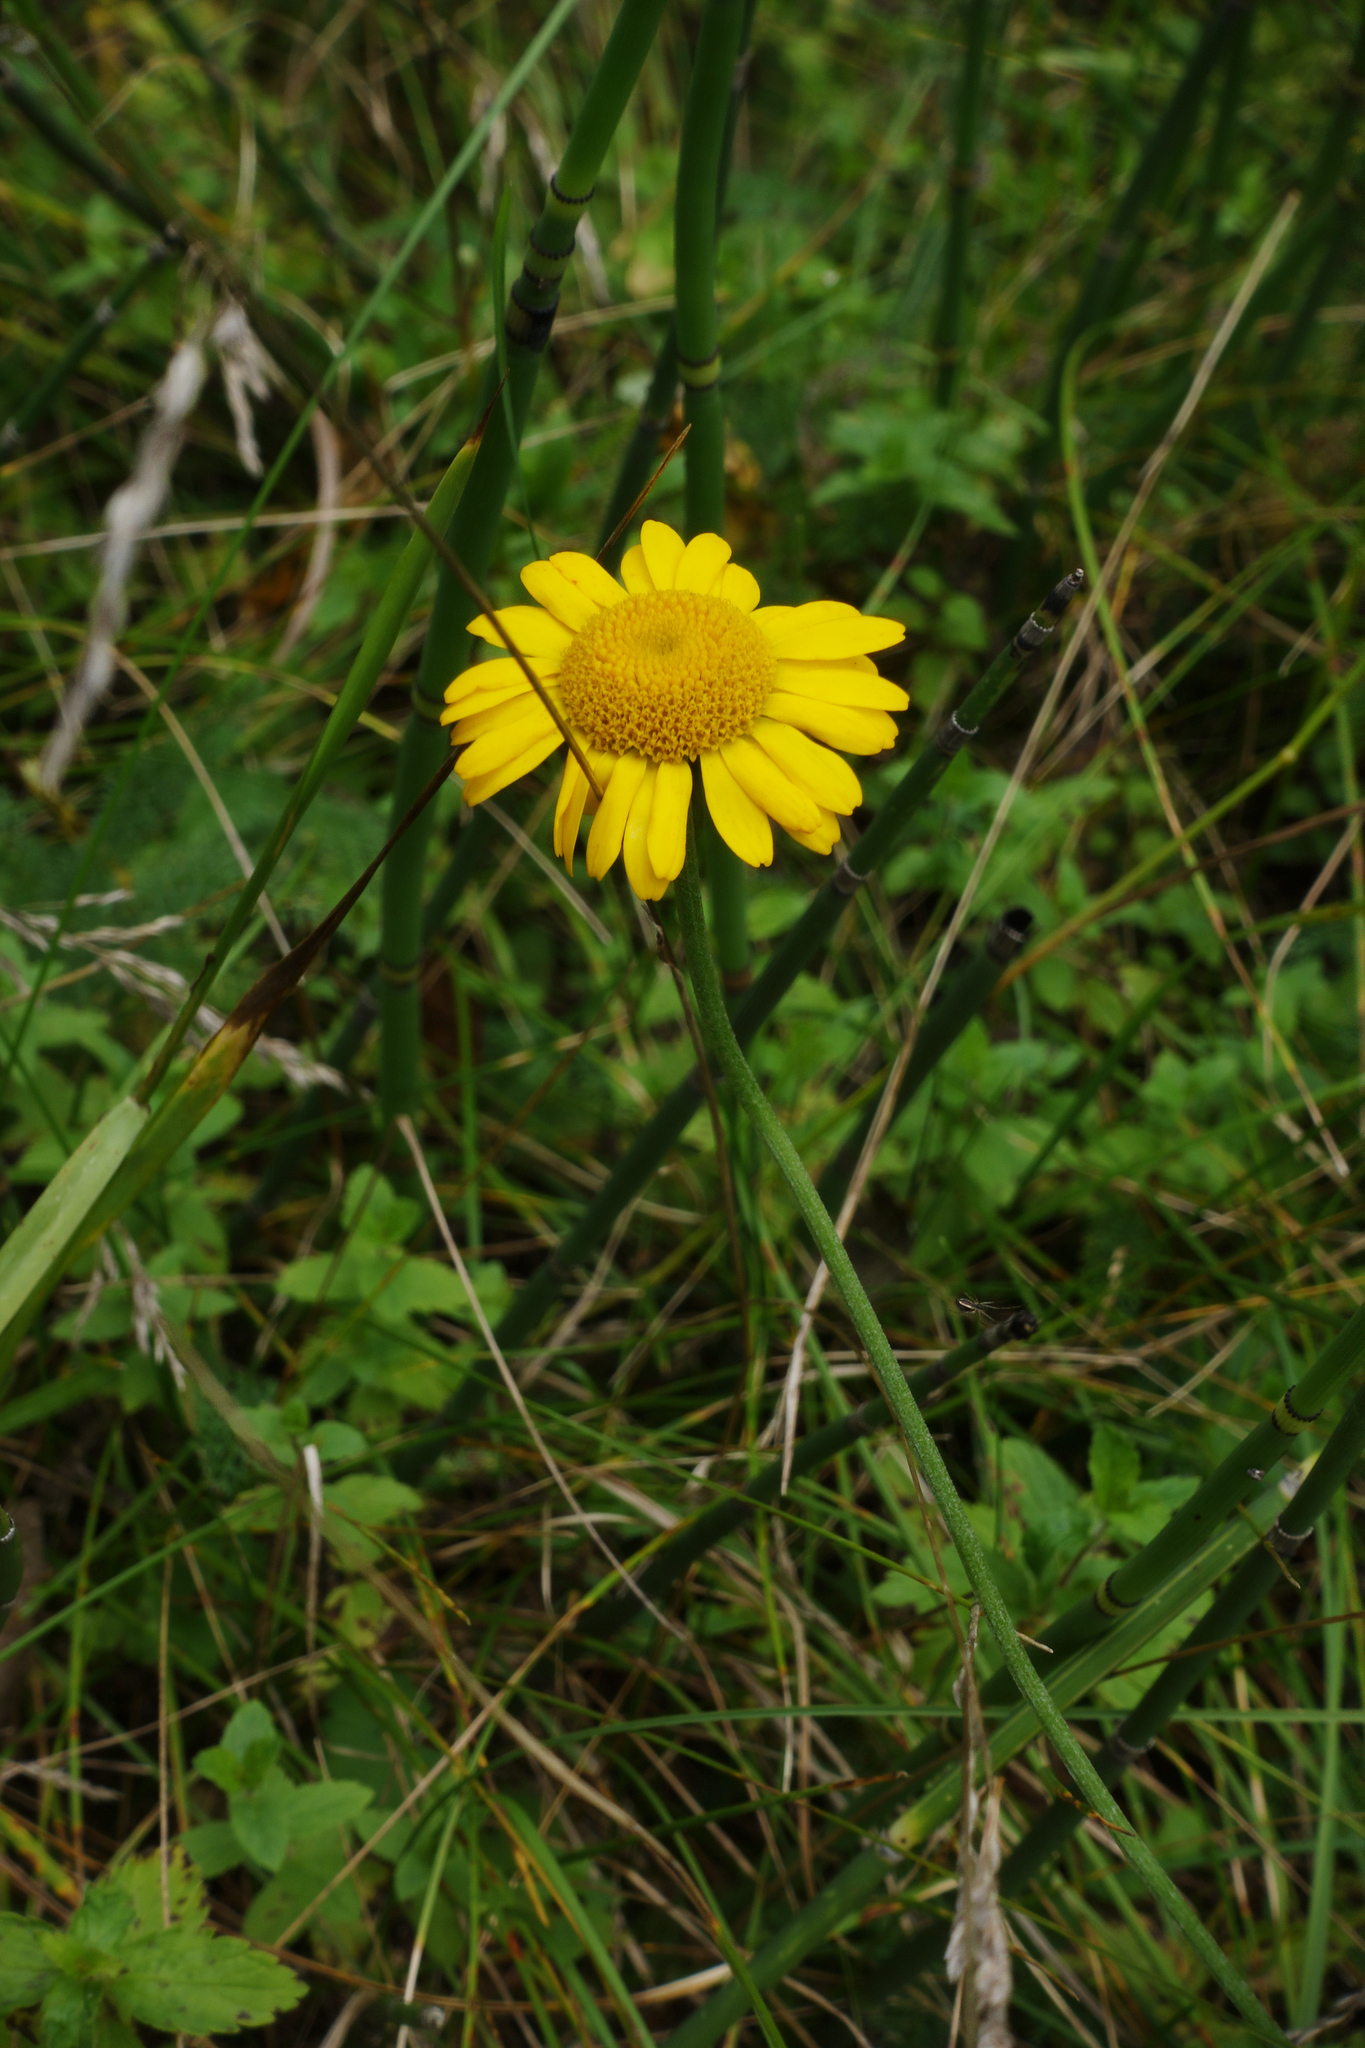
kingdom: Plantae
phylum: Tracheophyta
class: Magnoliopsida
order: Asterales
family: Asteraceae
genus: Cota
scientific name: Cota tinctoria
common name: Golden chamomile
